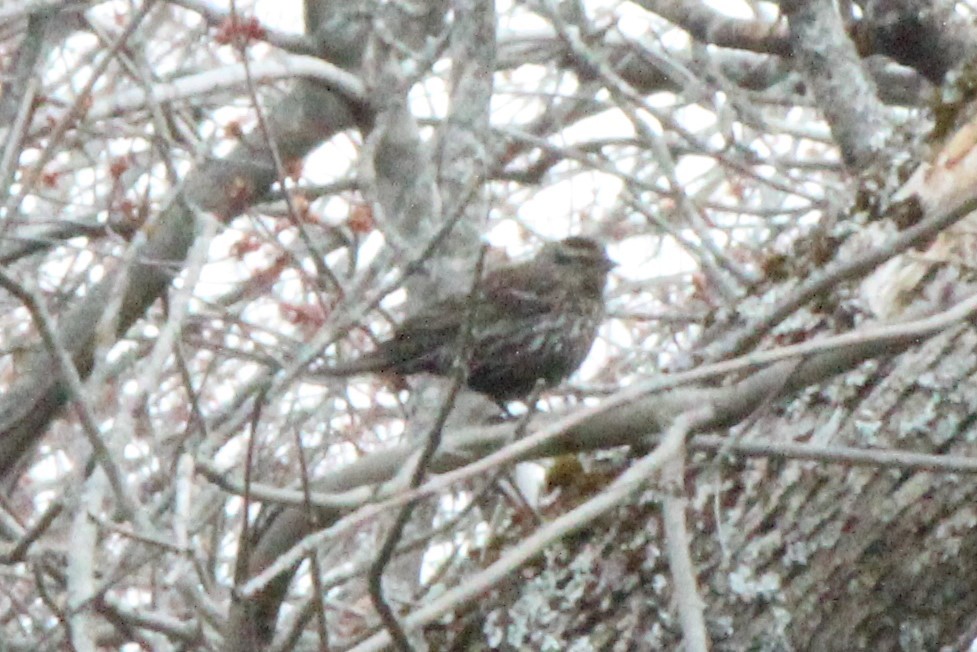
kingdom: Animalia
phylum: Chordata
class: Aves
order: Passeriformes
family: Icteridae
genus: Agelaius
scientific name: Agelaius phoeniceus
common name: Red-winged blackbird
